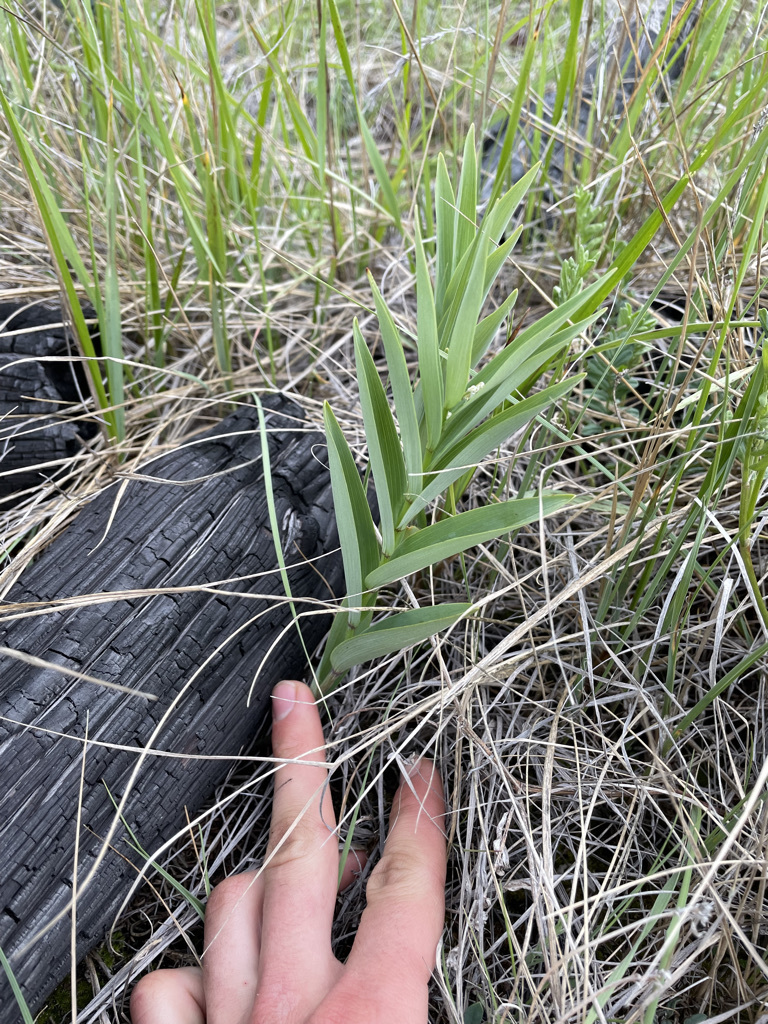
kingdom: Plantae
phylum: Tracheophyta
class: Liliopsida
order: Asparagales
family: Asparagaceae
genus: Maianthemum
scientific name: Maianthemum stellatum
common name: Little false solomon's seal
